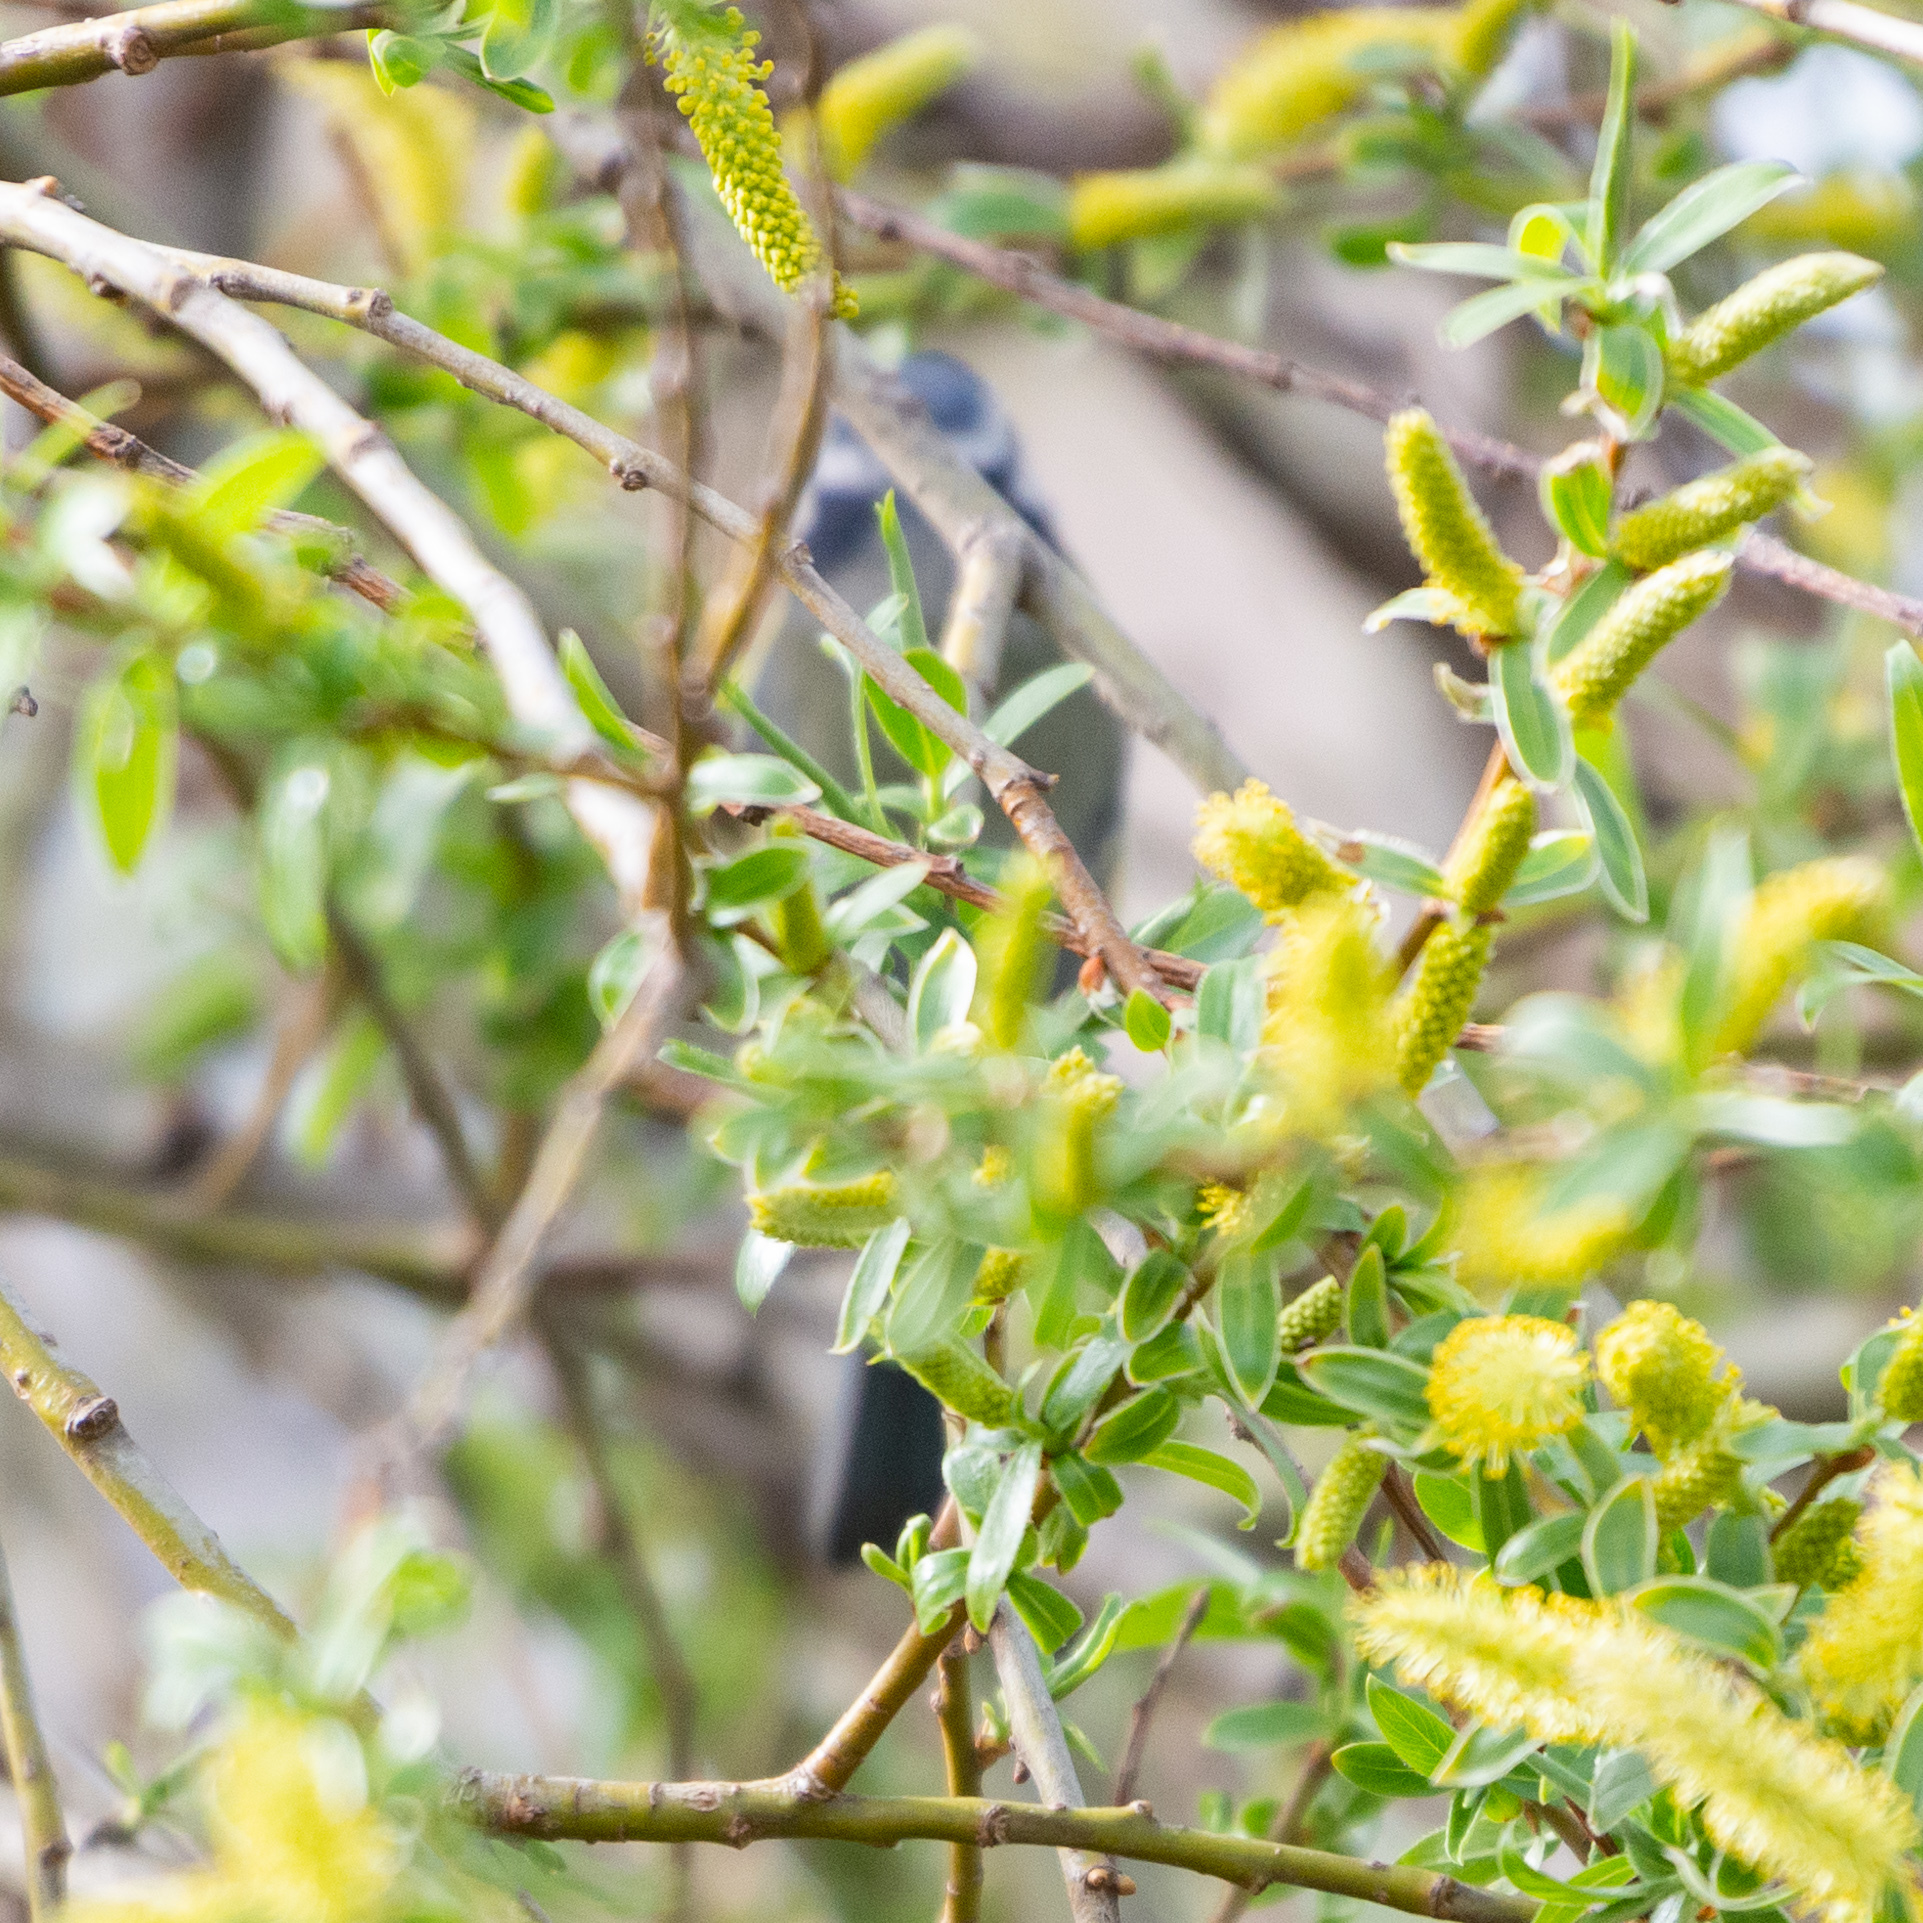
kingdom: Animalia
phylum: Chordata
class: Aves
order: Passeriformes
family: Paridae
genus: Cyanistes
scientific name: Cyanistes caeruleus
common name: Eurasian blue tit
